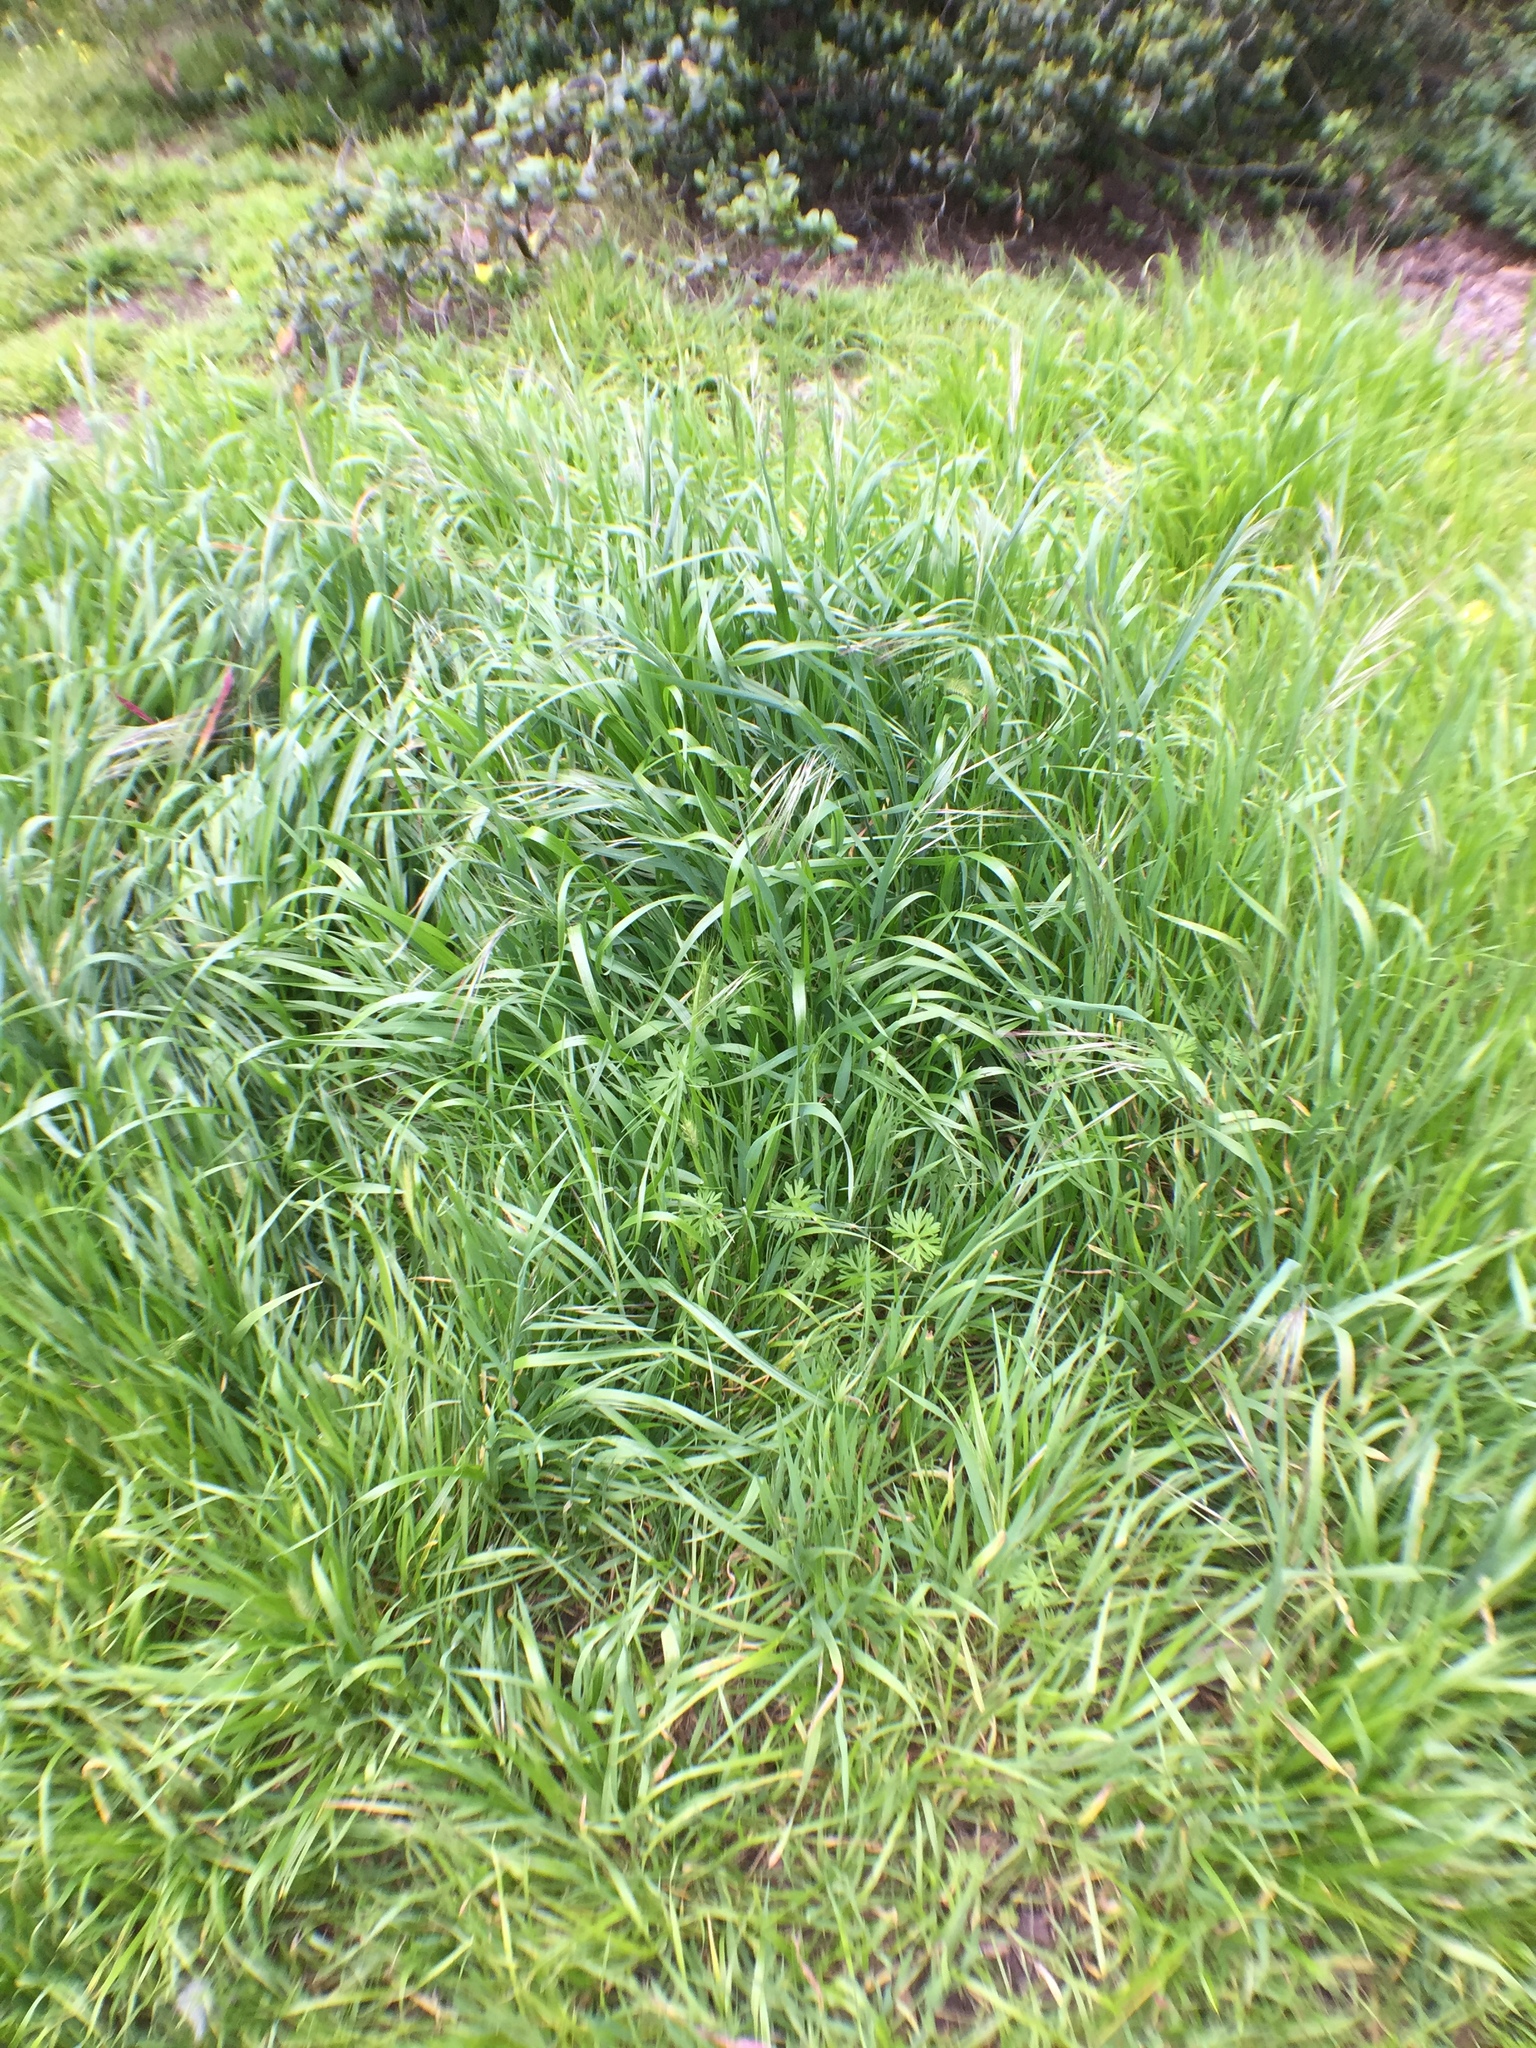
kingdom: Plantae
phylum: Tracheophyta
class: Liliopsida
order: Poales
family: Poaceae
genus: Bromus
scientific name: Bromus diandrus
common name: Ripgut brome
